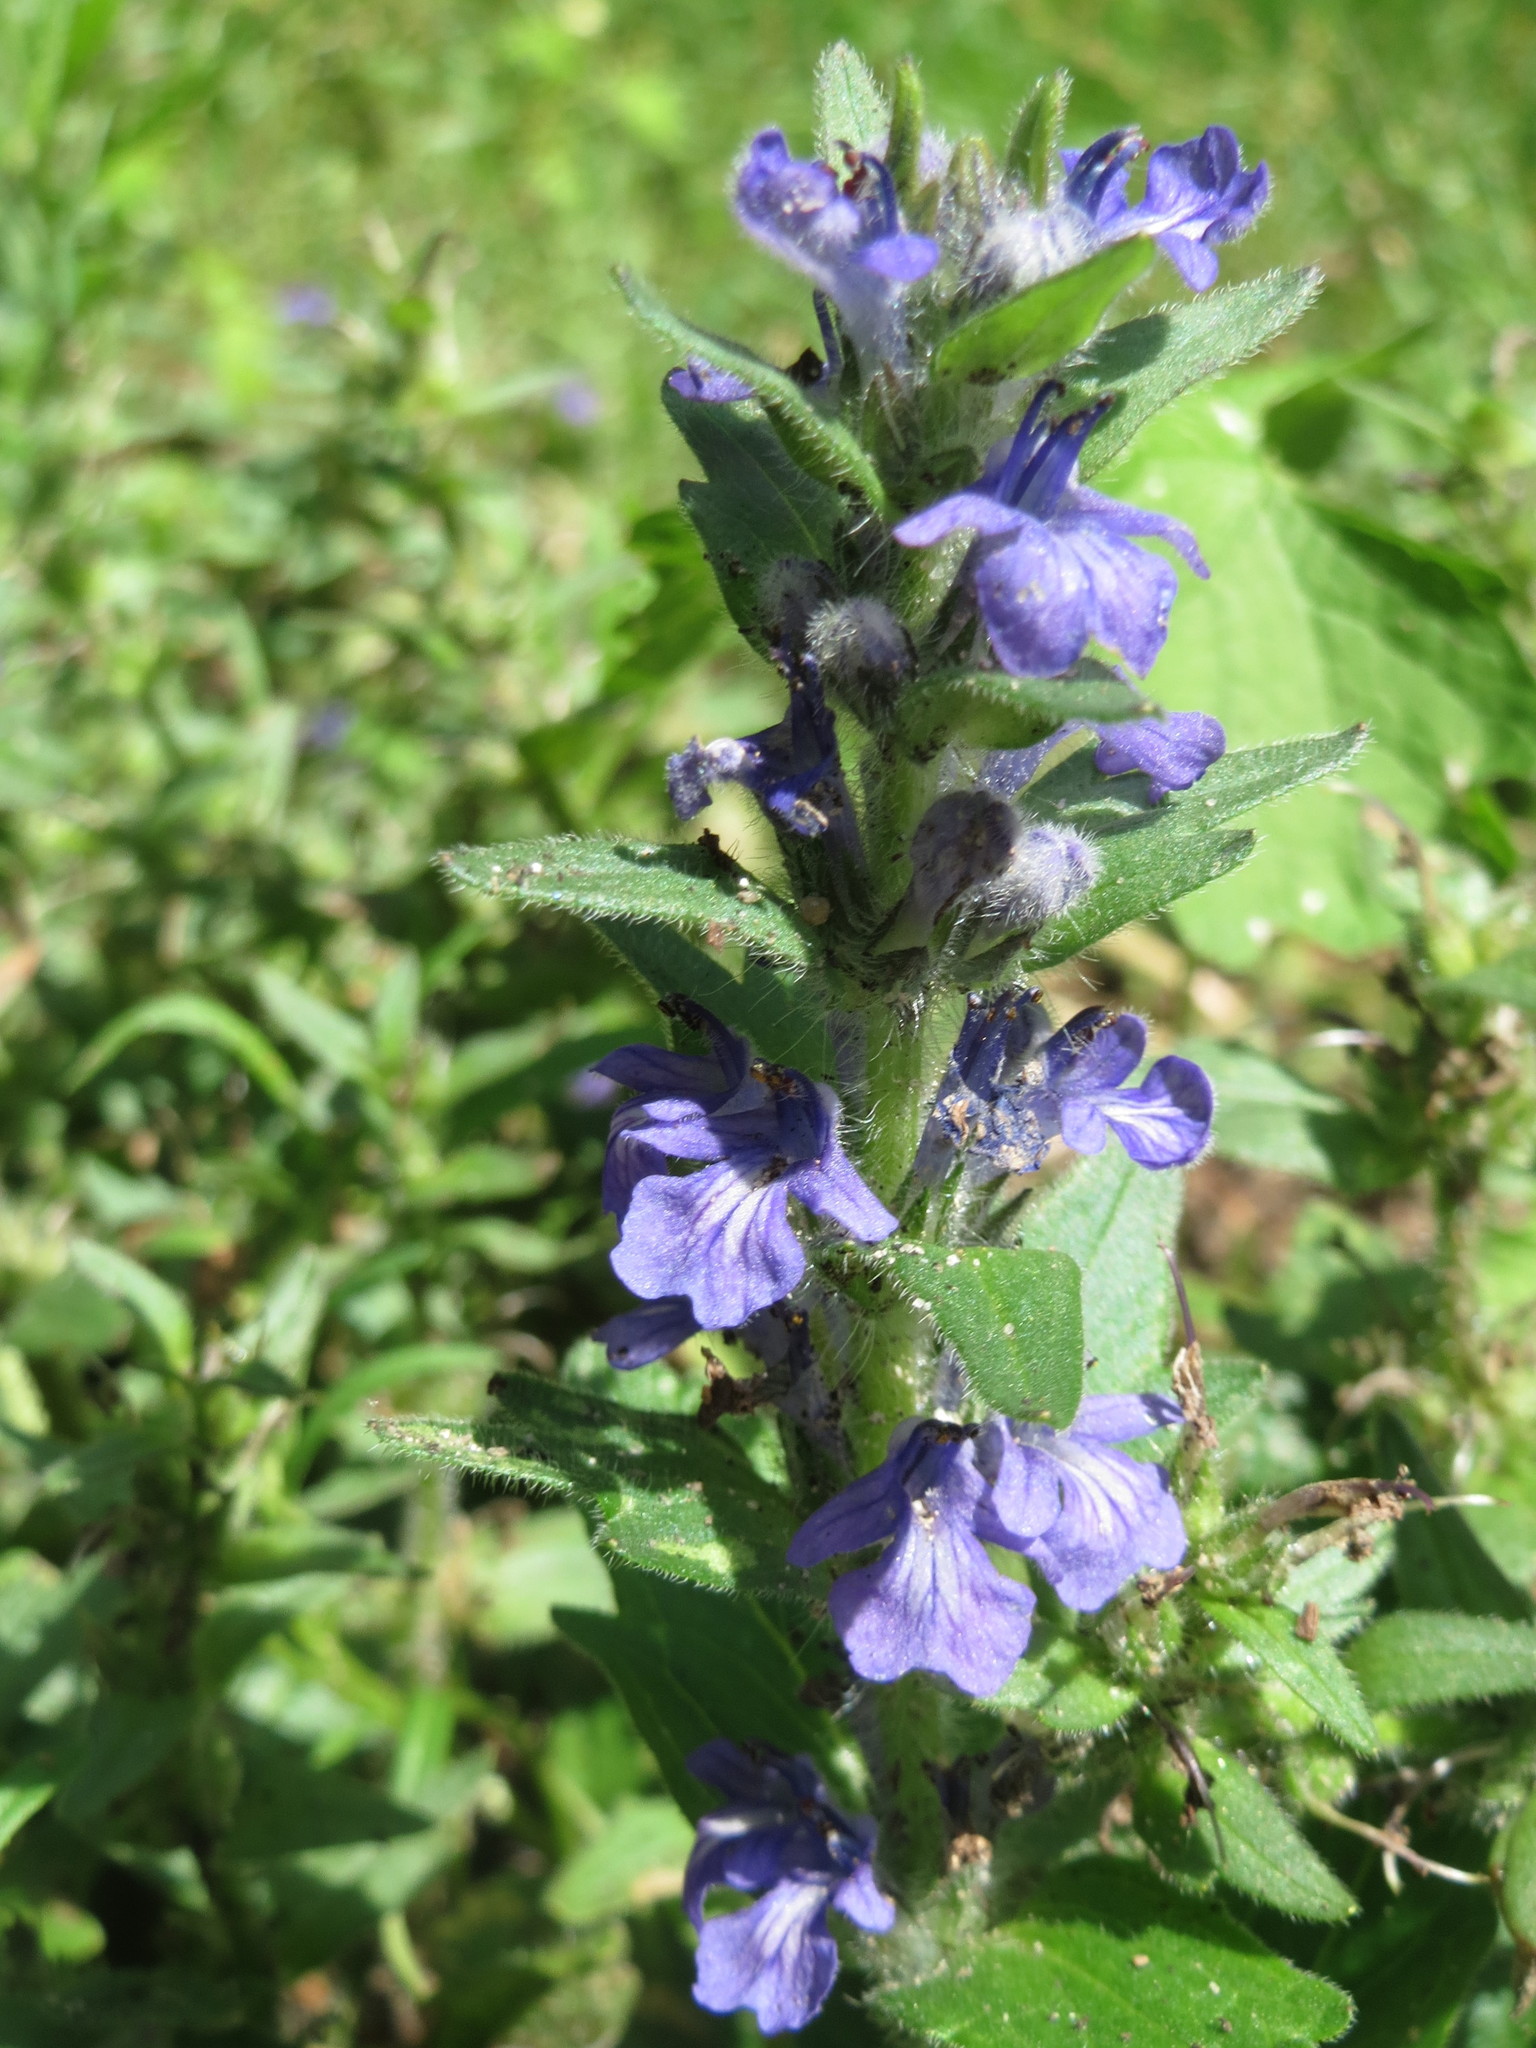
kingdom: Plantae
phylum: Tracheophyta
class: Magnoliopsida
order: Lamiales
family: Lamiaceae
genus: Ajuga
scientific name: Ajuga reptans
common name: Bugle
